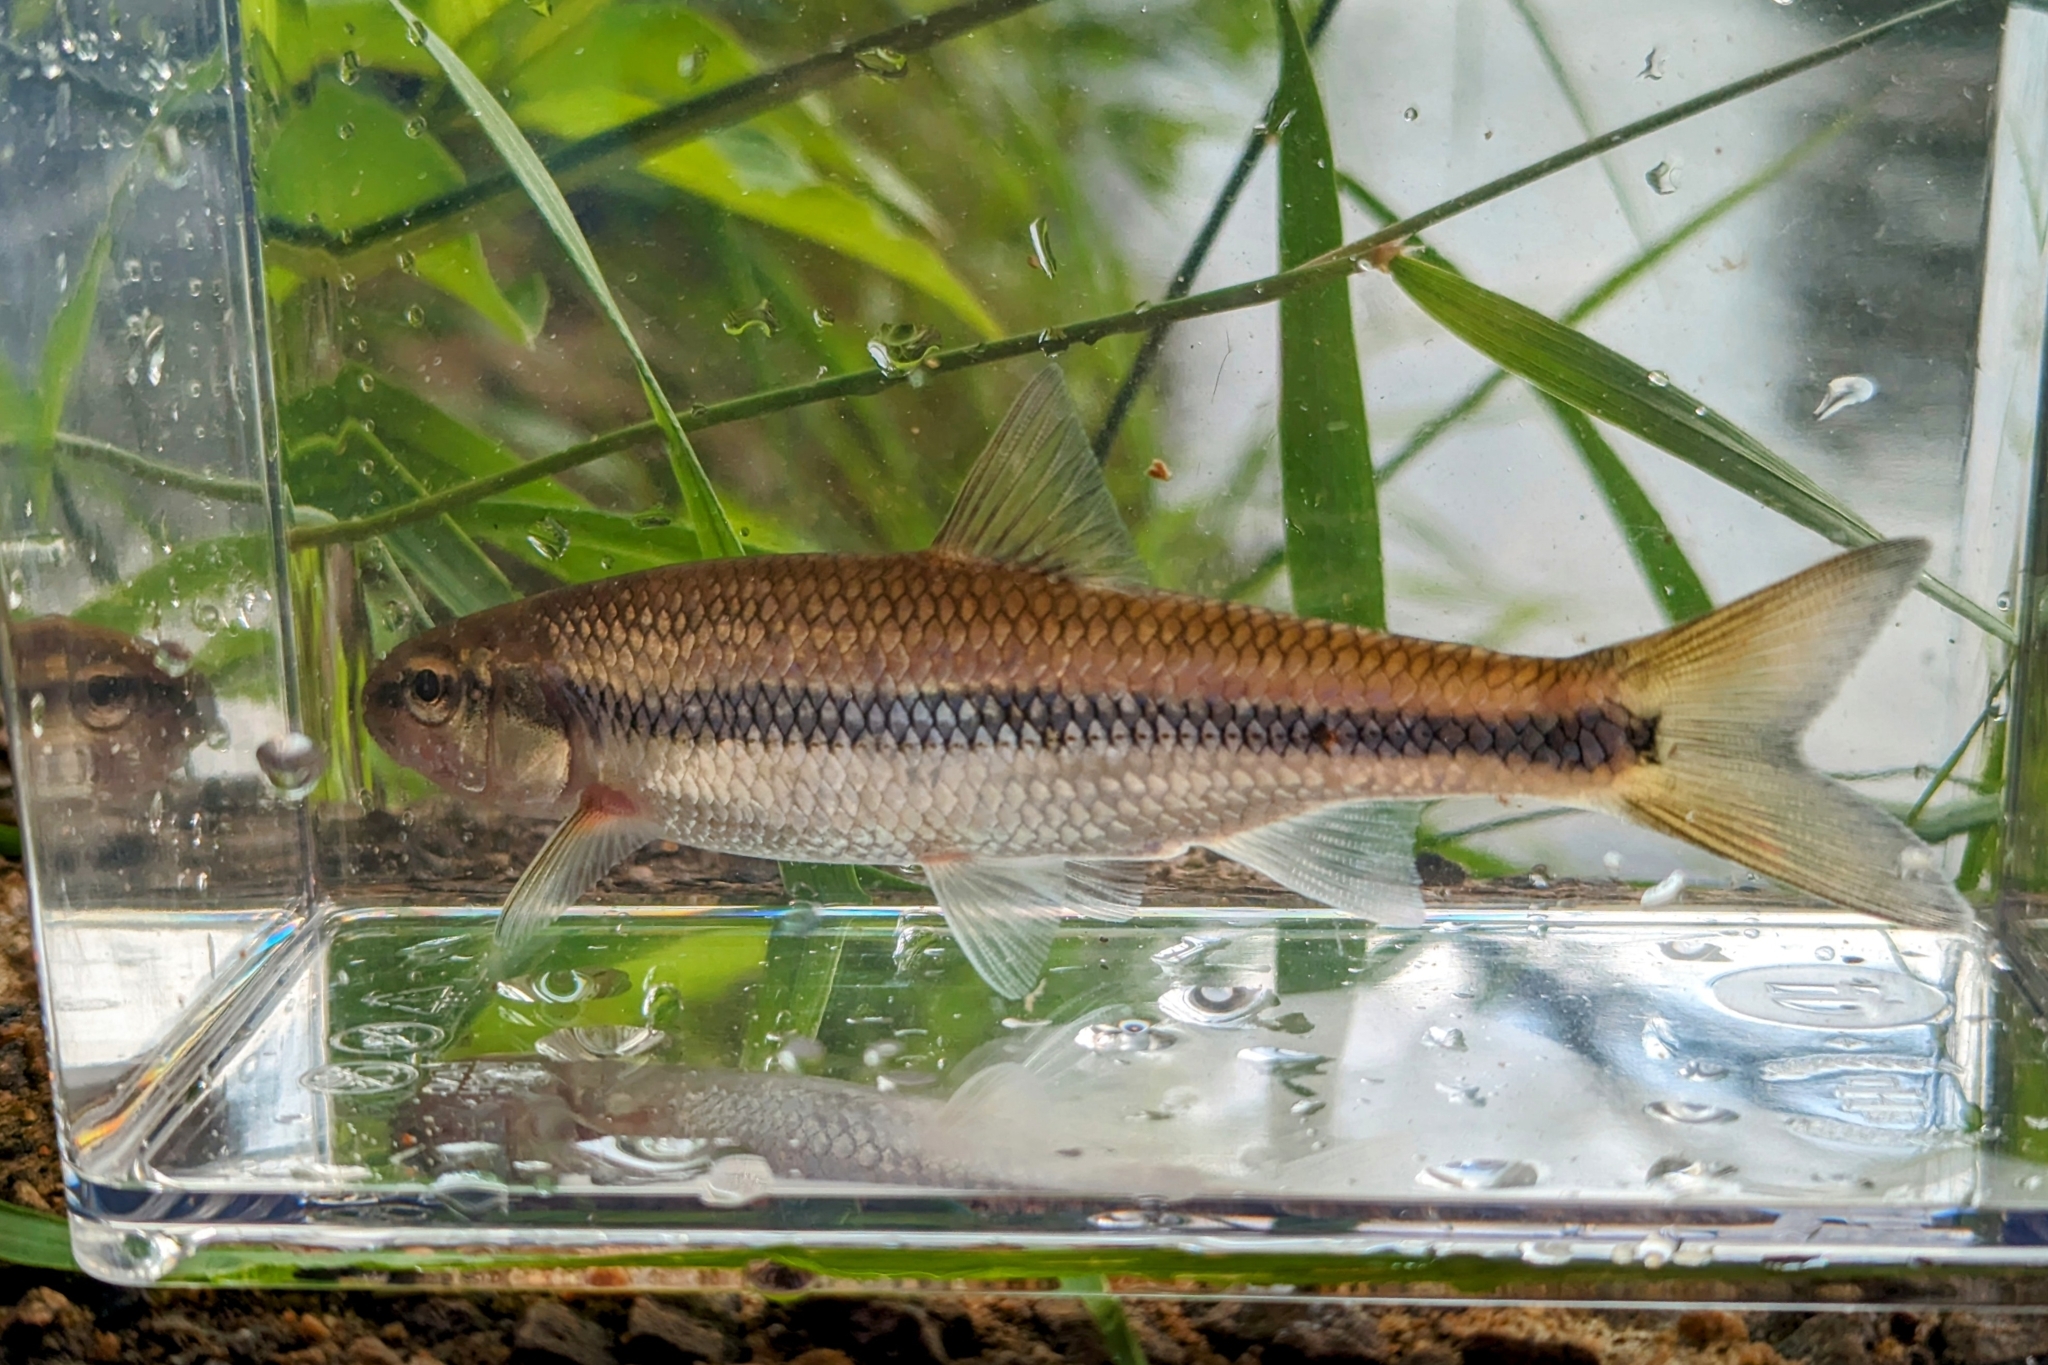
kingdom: Animalia
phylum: Chordata
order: Cypriniformes
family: Cyprinidae
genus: Semotilus
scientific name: Semotilus corporalis
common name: Fallfish
